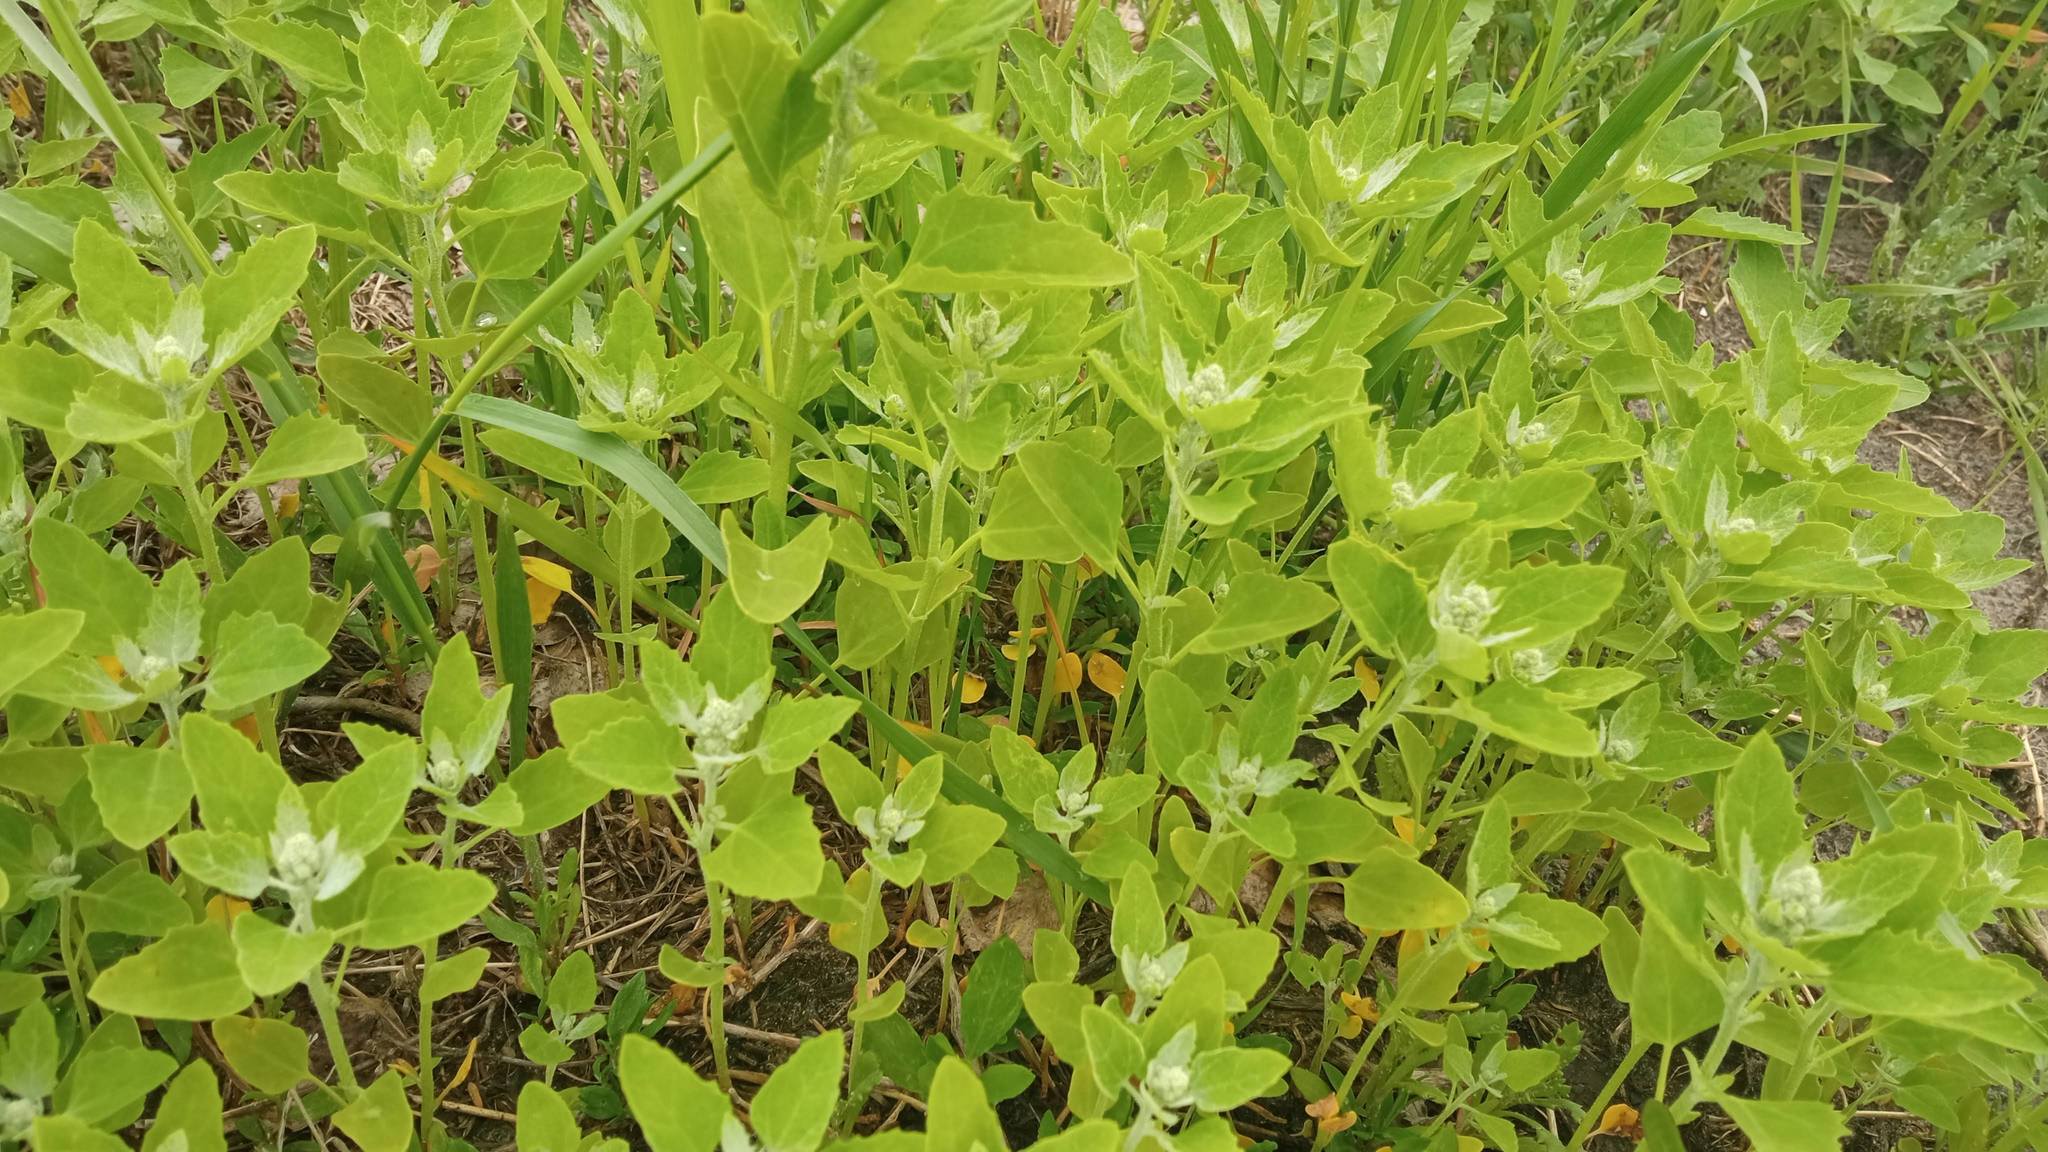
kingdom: Plantae
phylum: Tracheophyta
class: Magnoliopsida
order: Caryophyllales
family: Amaranthaceae
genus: Chenopodium
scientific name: Chenopodium album
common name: Fat-hen
